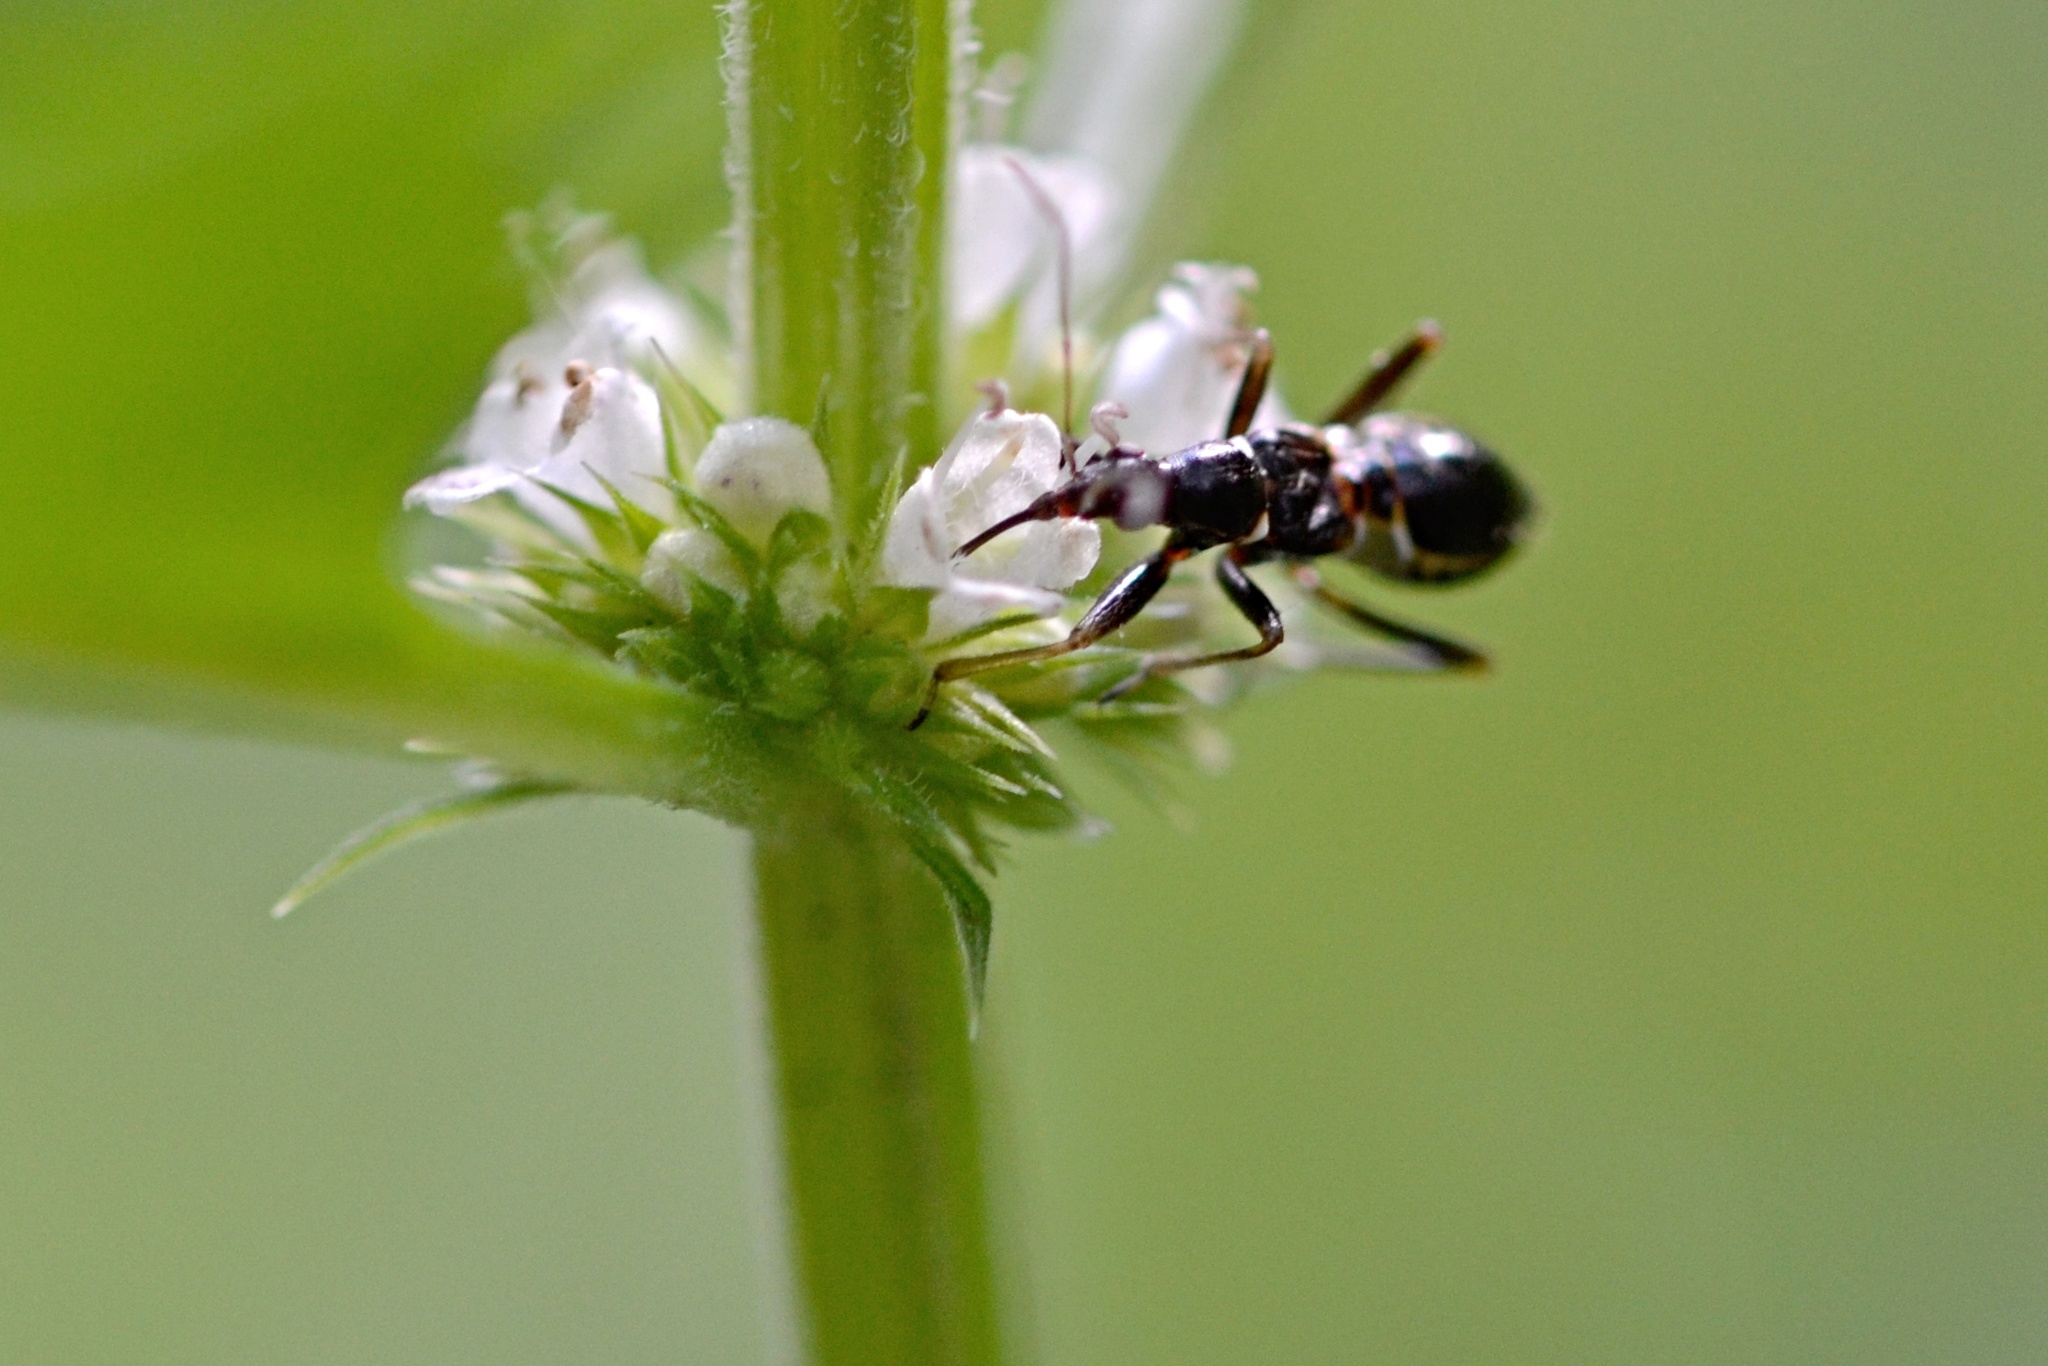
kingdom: Animalia
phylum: Arthropoda
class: Insecta
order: Hemiptera
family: Nabidae
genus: Himacerus
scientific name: Himacerus mirmicoides
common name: Ant damsel bug
